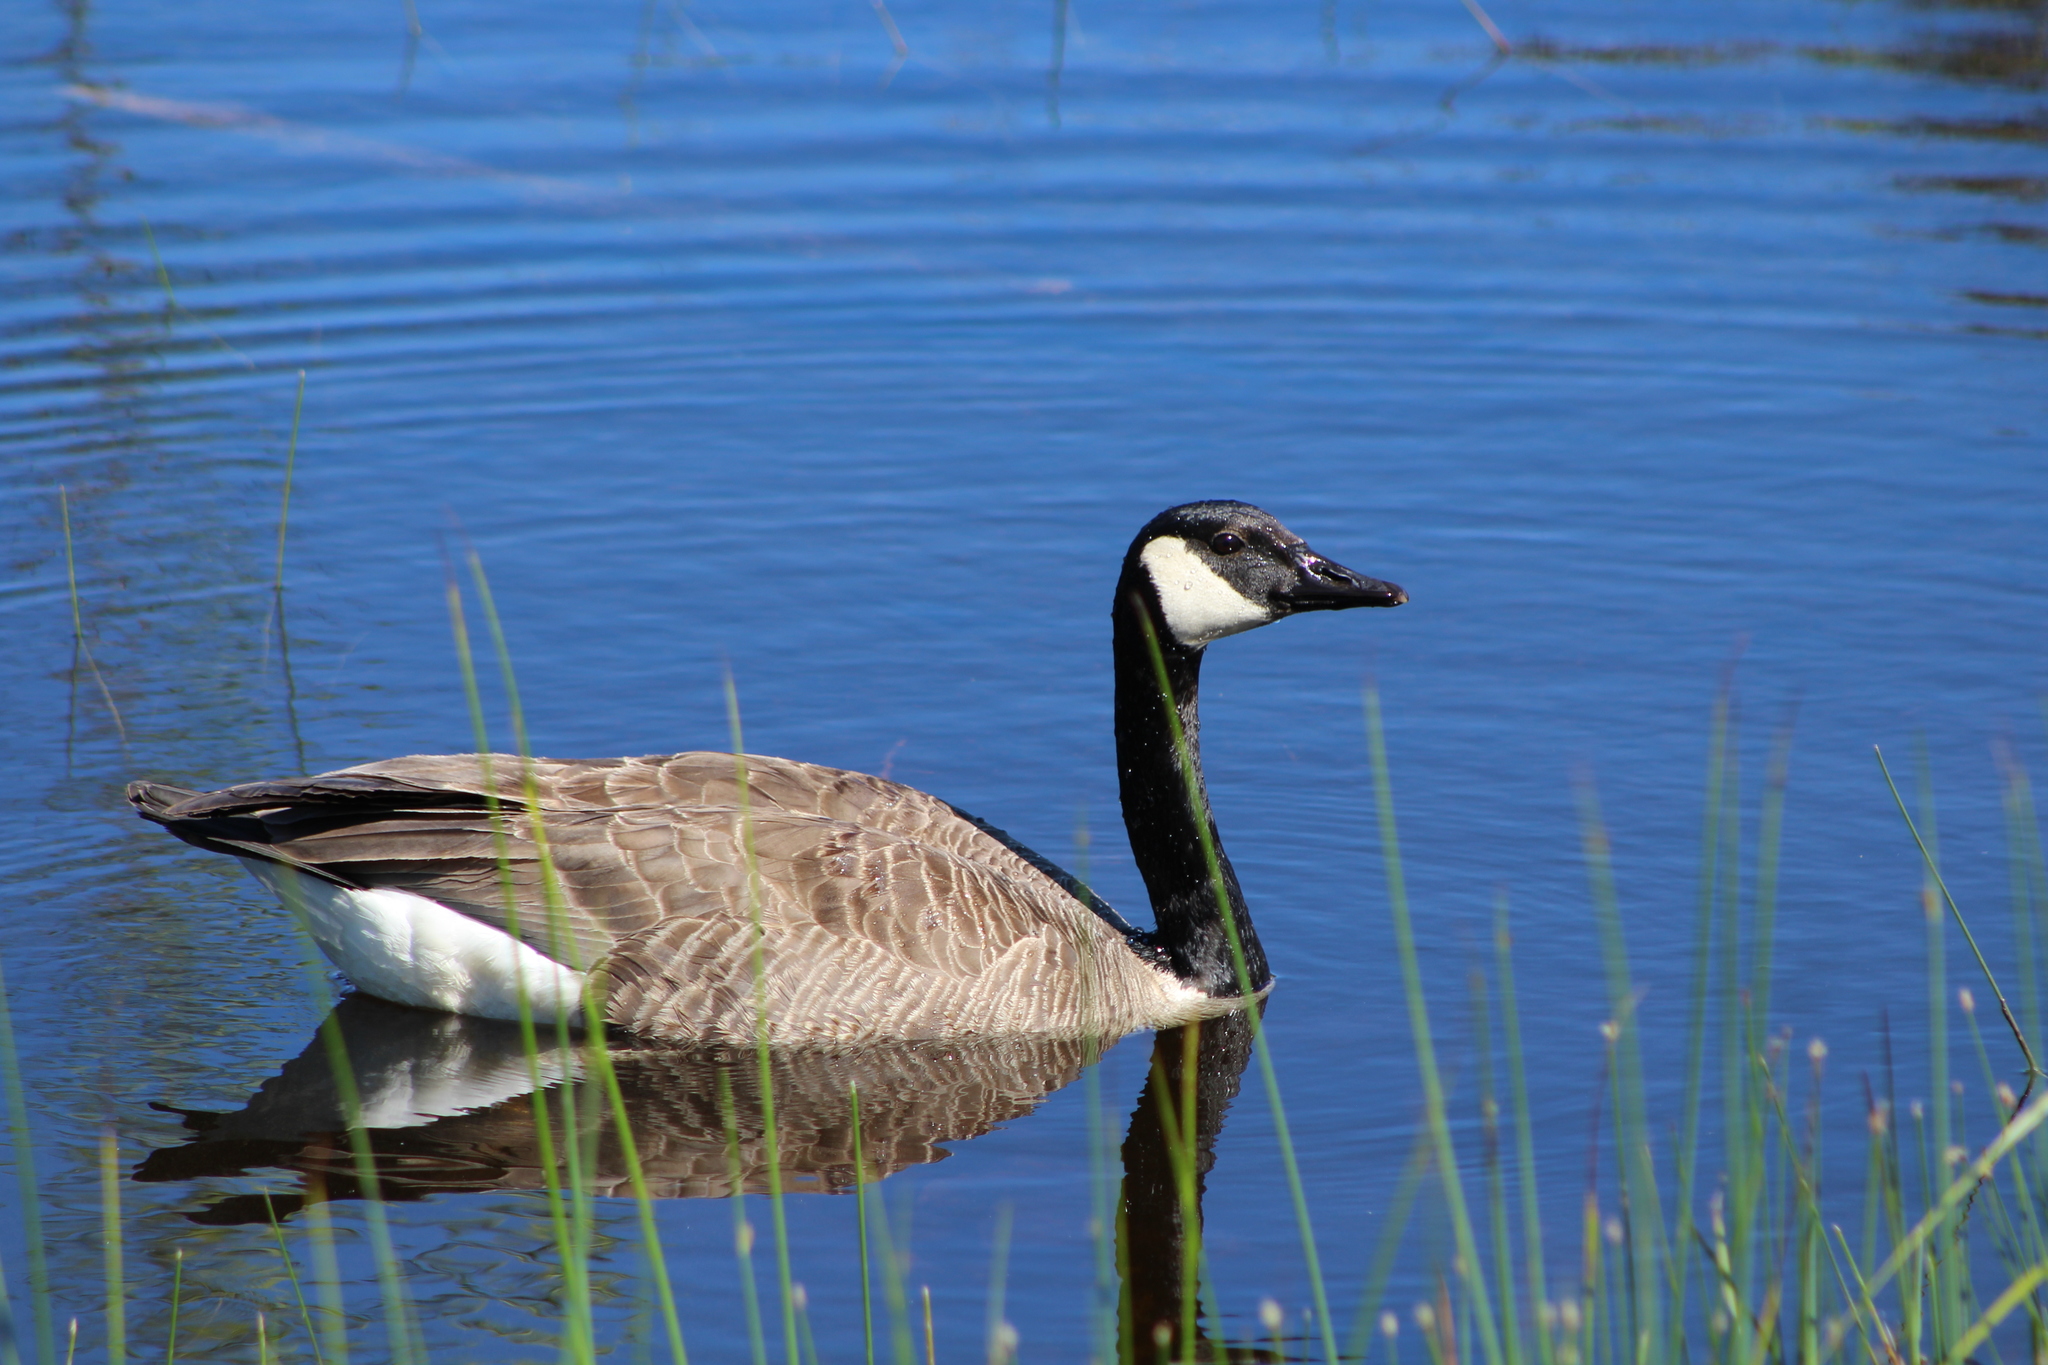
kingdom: Animalia
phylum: Chordata
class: Aves
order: Anseriformes
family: Anatidae
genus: Branta
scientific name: Branta canadensis
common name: Canada goose
